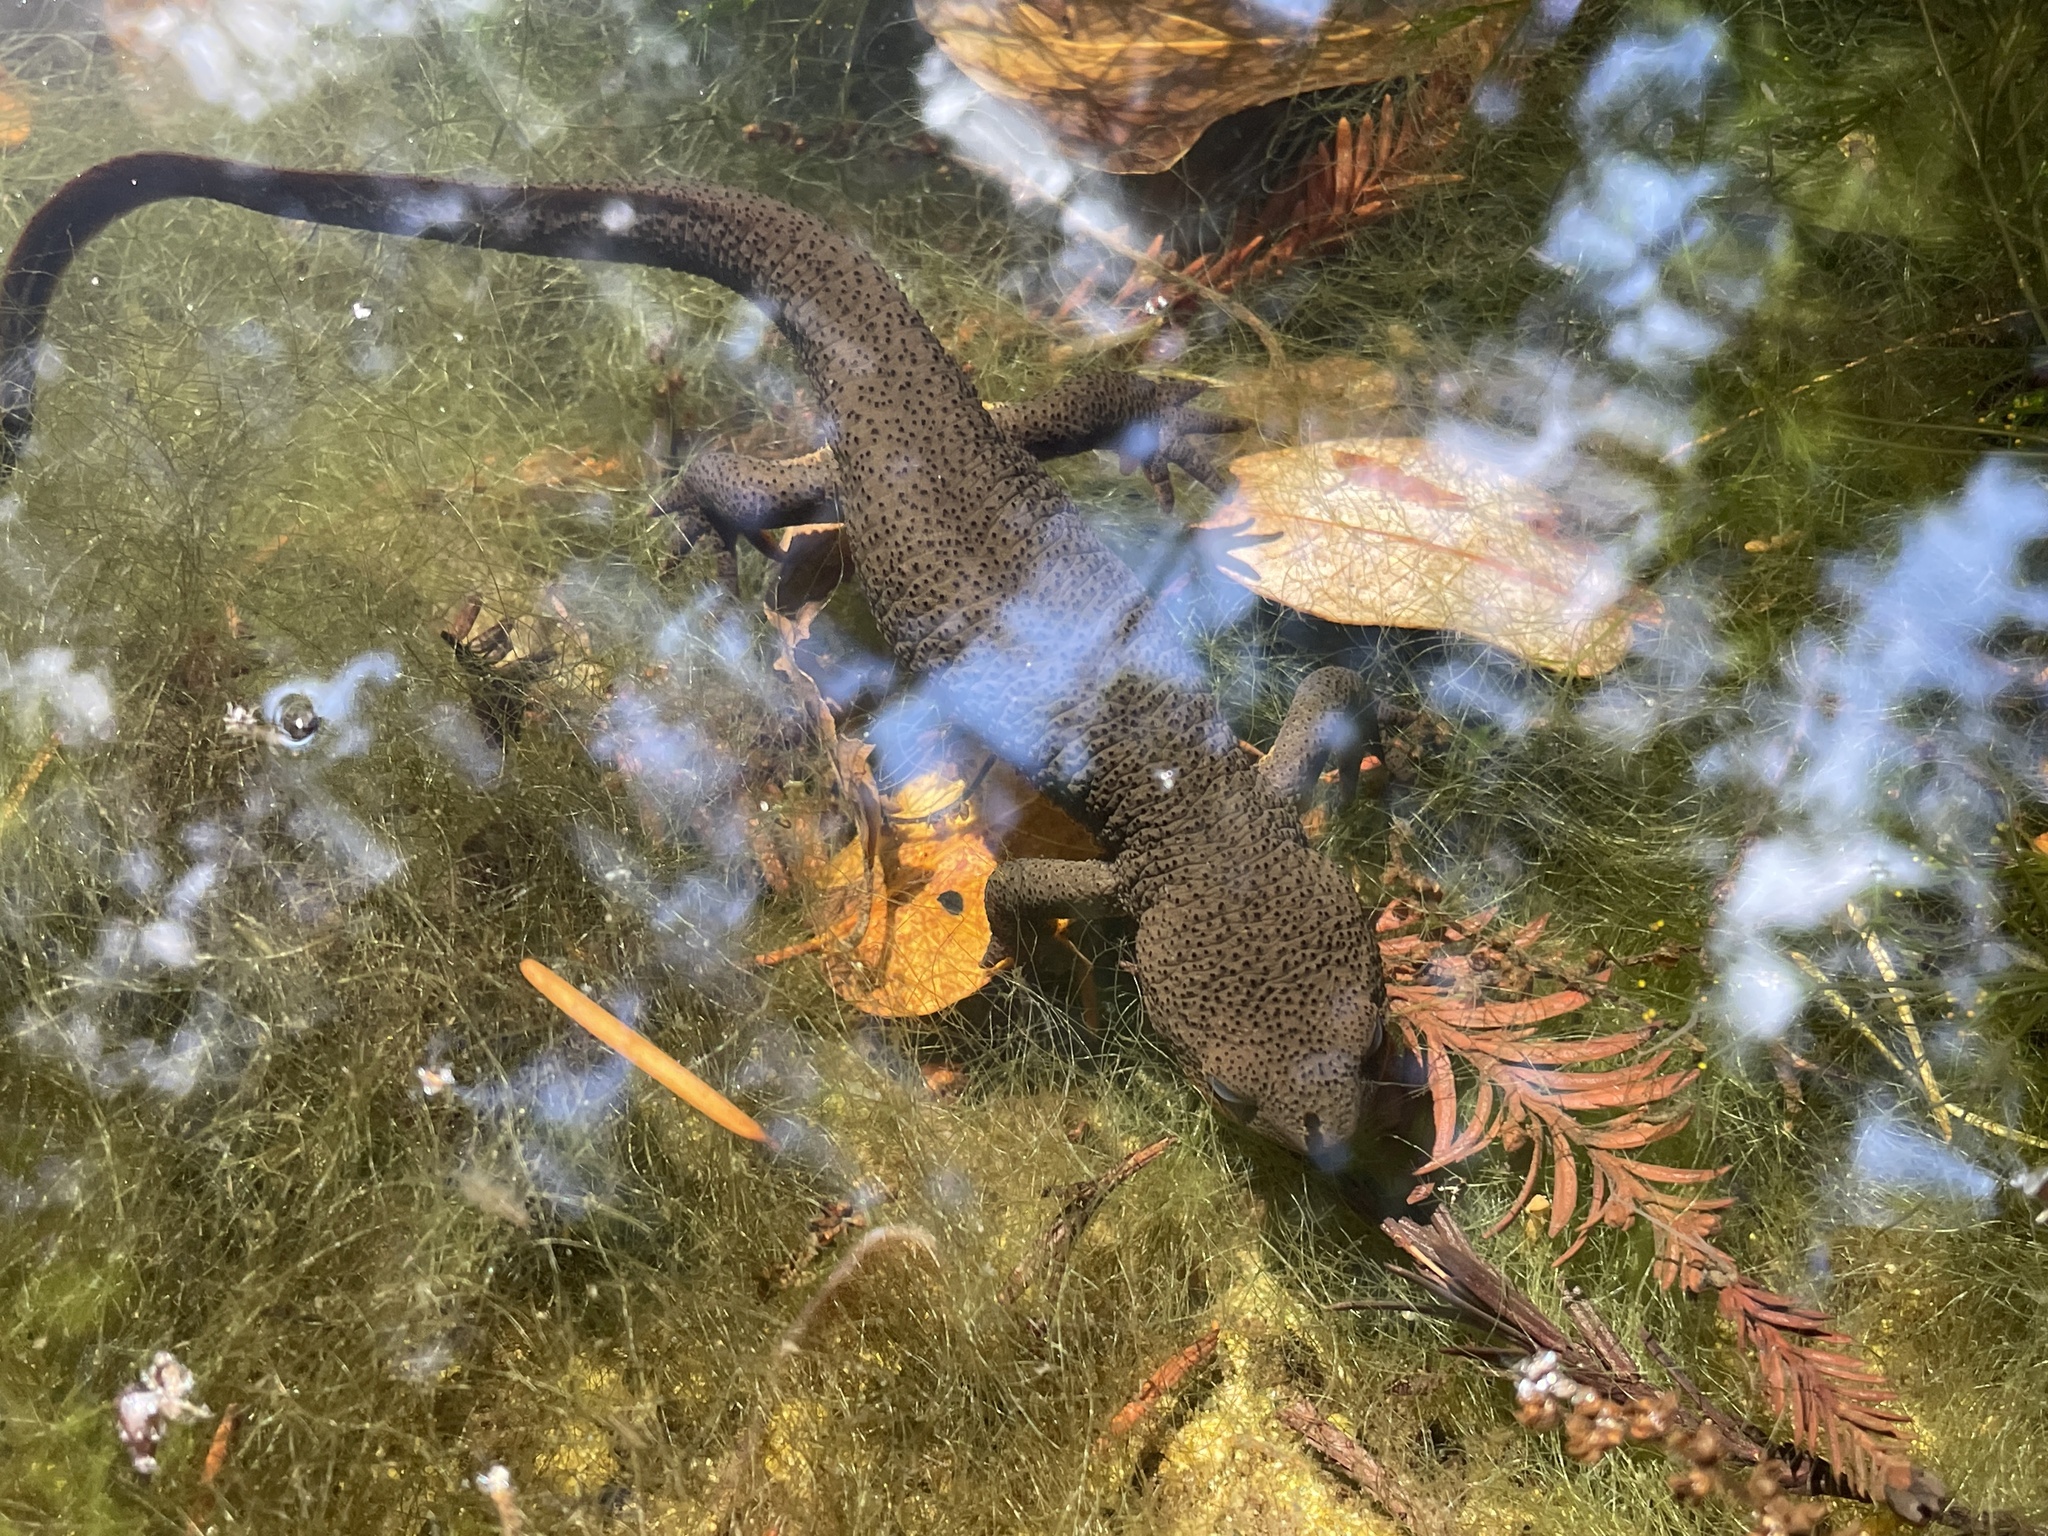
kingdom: Animalia
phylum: Chordata
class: Amphibia
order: Caudata
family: Salamandridae
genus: Taricha
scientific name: Taricha granulosa
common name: Roughskin newt
